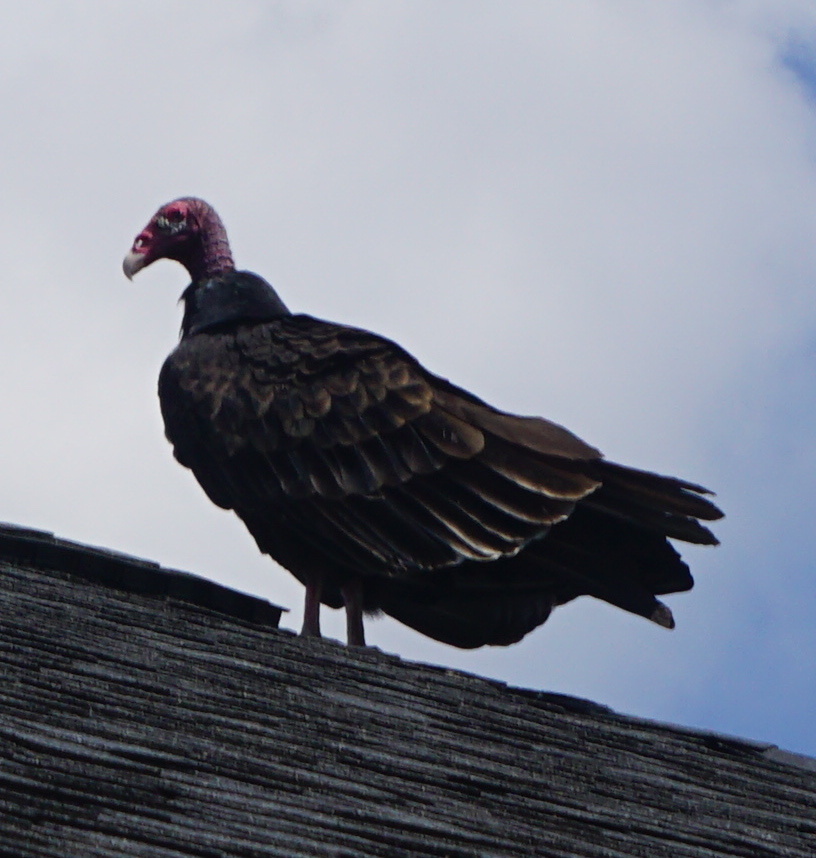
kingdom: Animalia
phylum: Chordata
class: Aves
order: Accipitriformes
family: Cathartidae
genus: Cathartes
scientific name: Cathartes aura
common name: Turkey vulture
